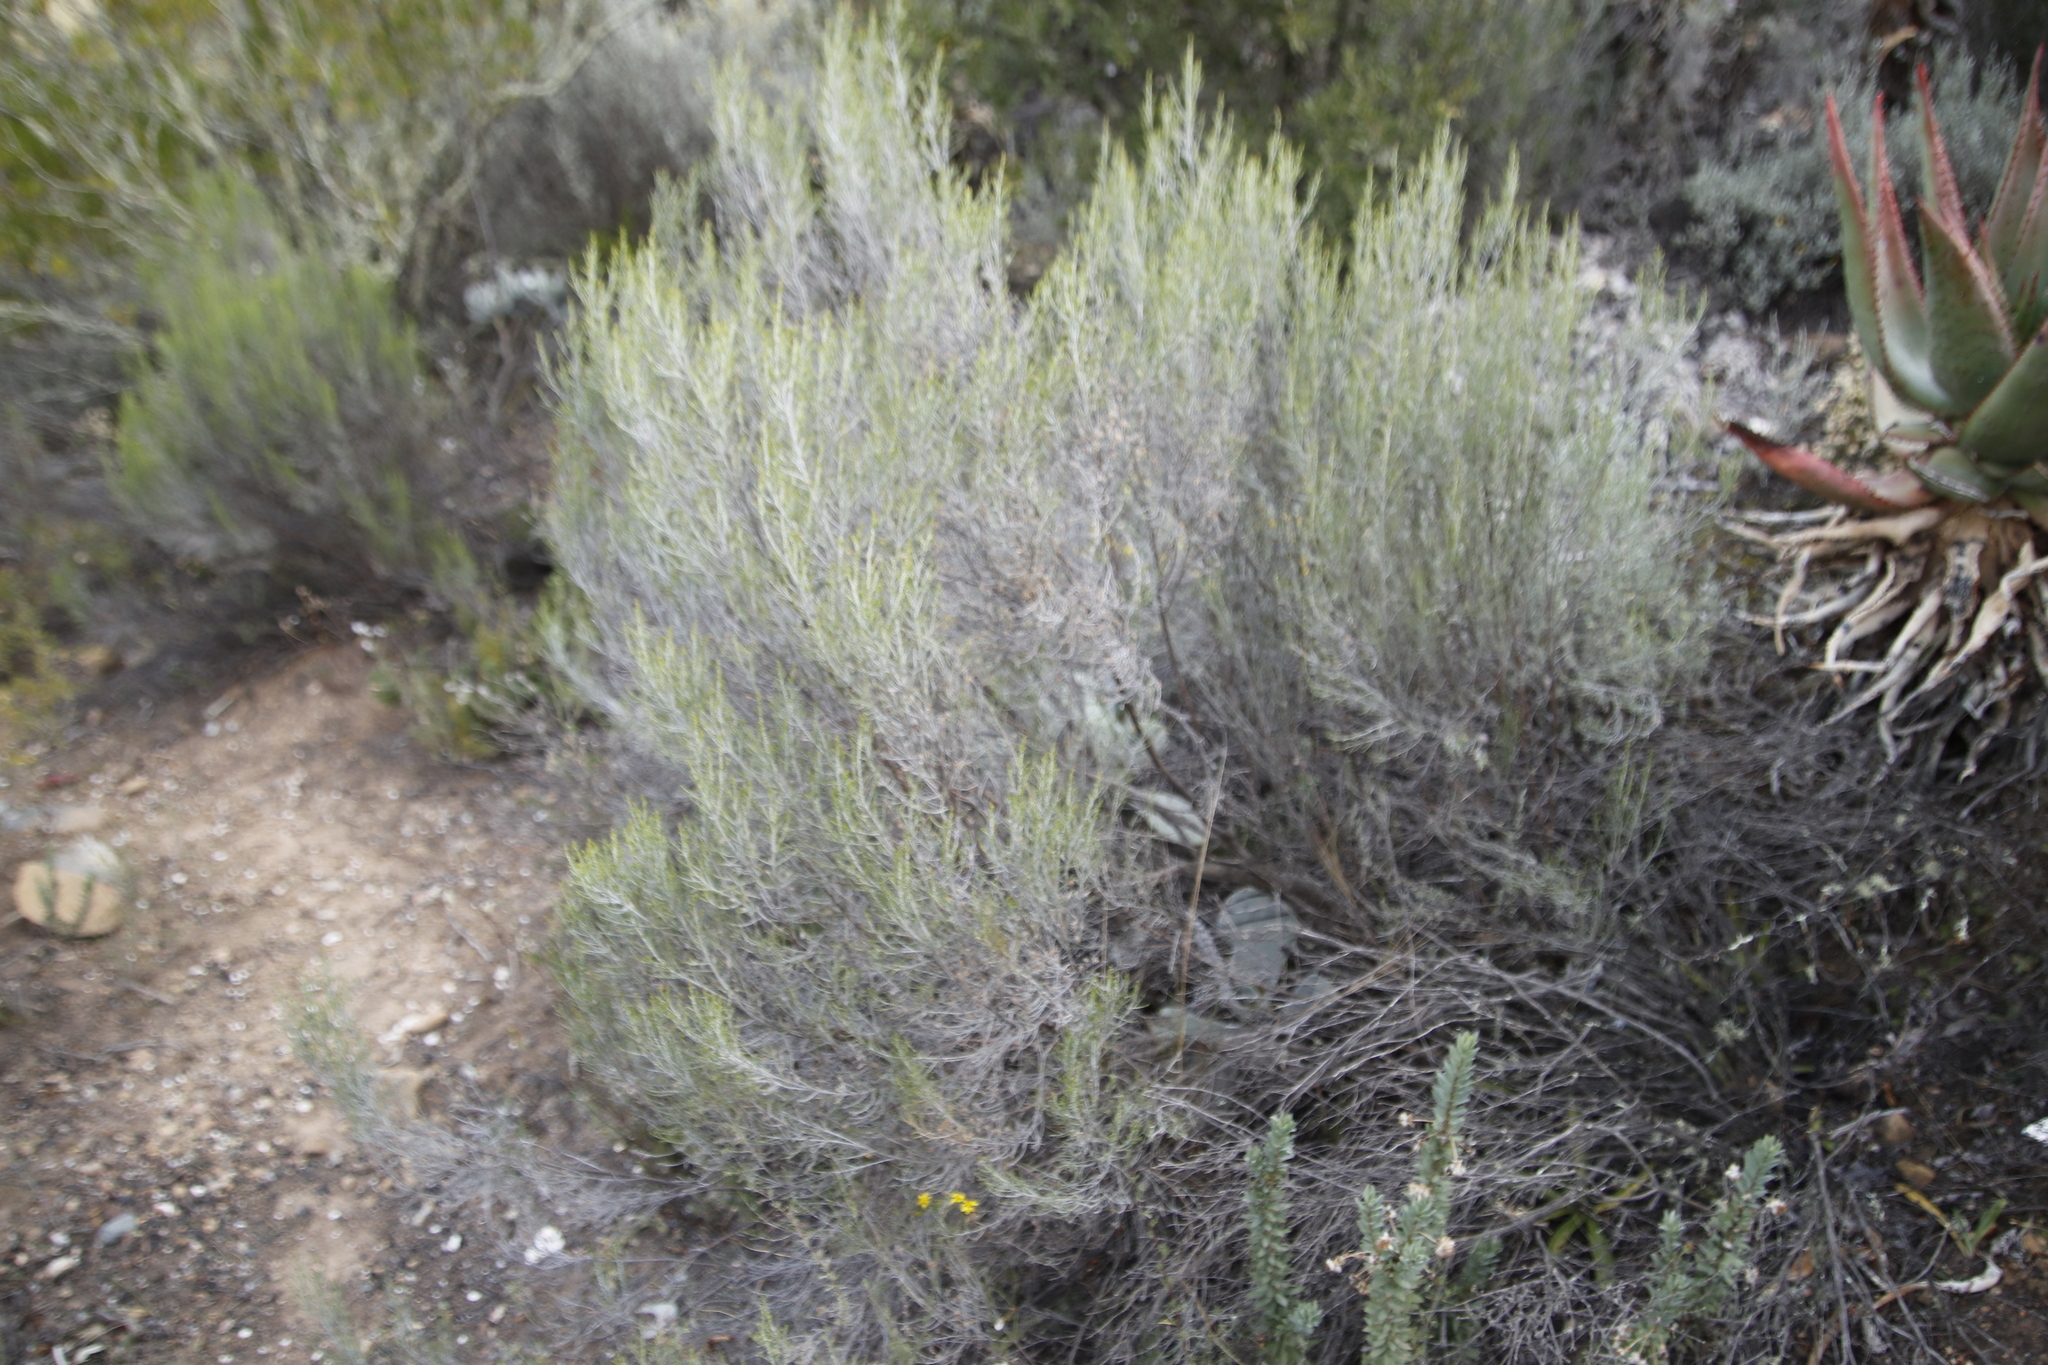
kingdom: Plantae
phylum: Tracheophyta
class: Magnoliopsida
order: Asterales
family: Asteraceae
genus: Dicerothamnus
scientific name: Dicerothamnus rhinocerotis
